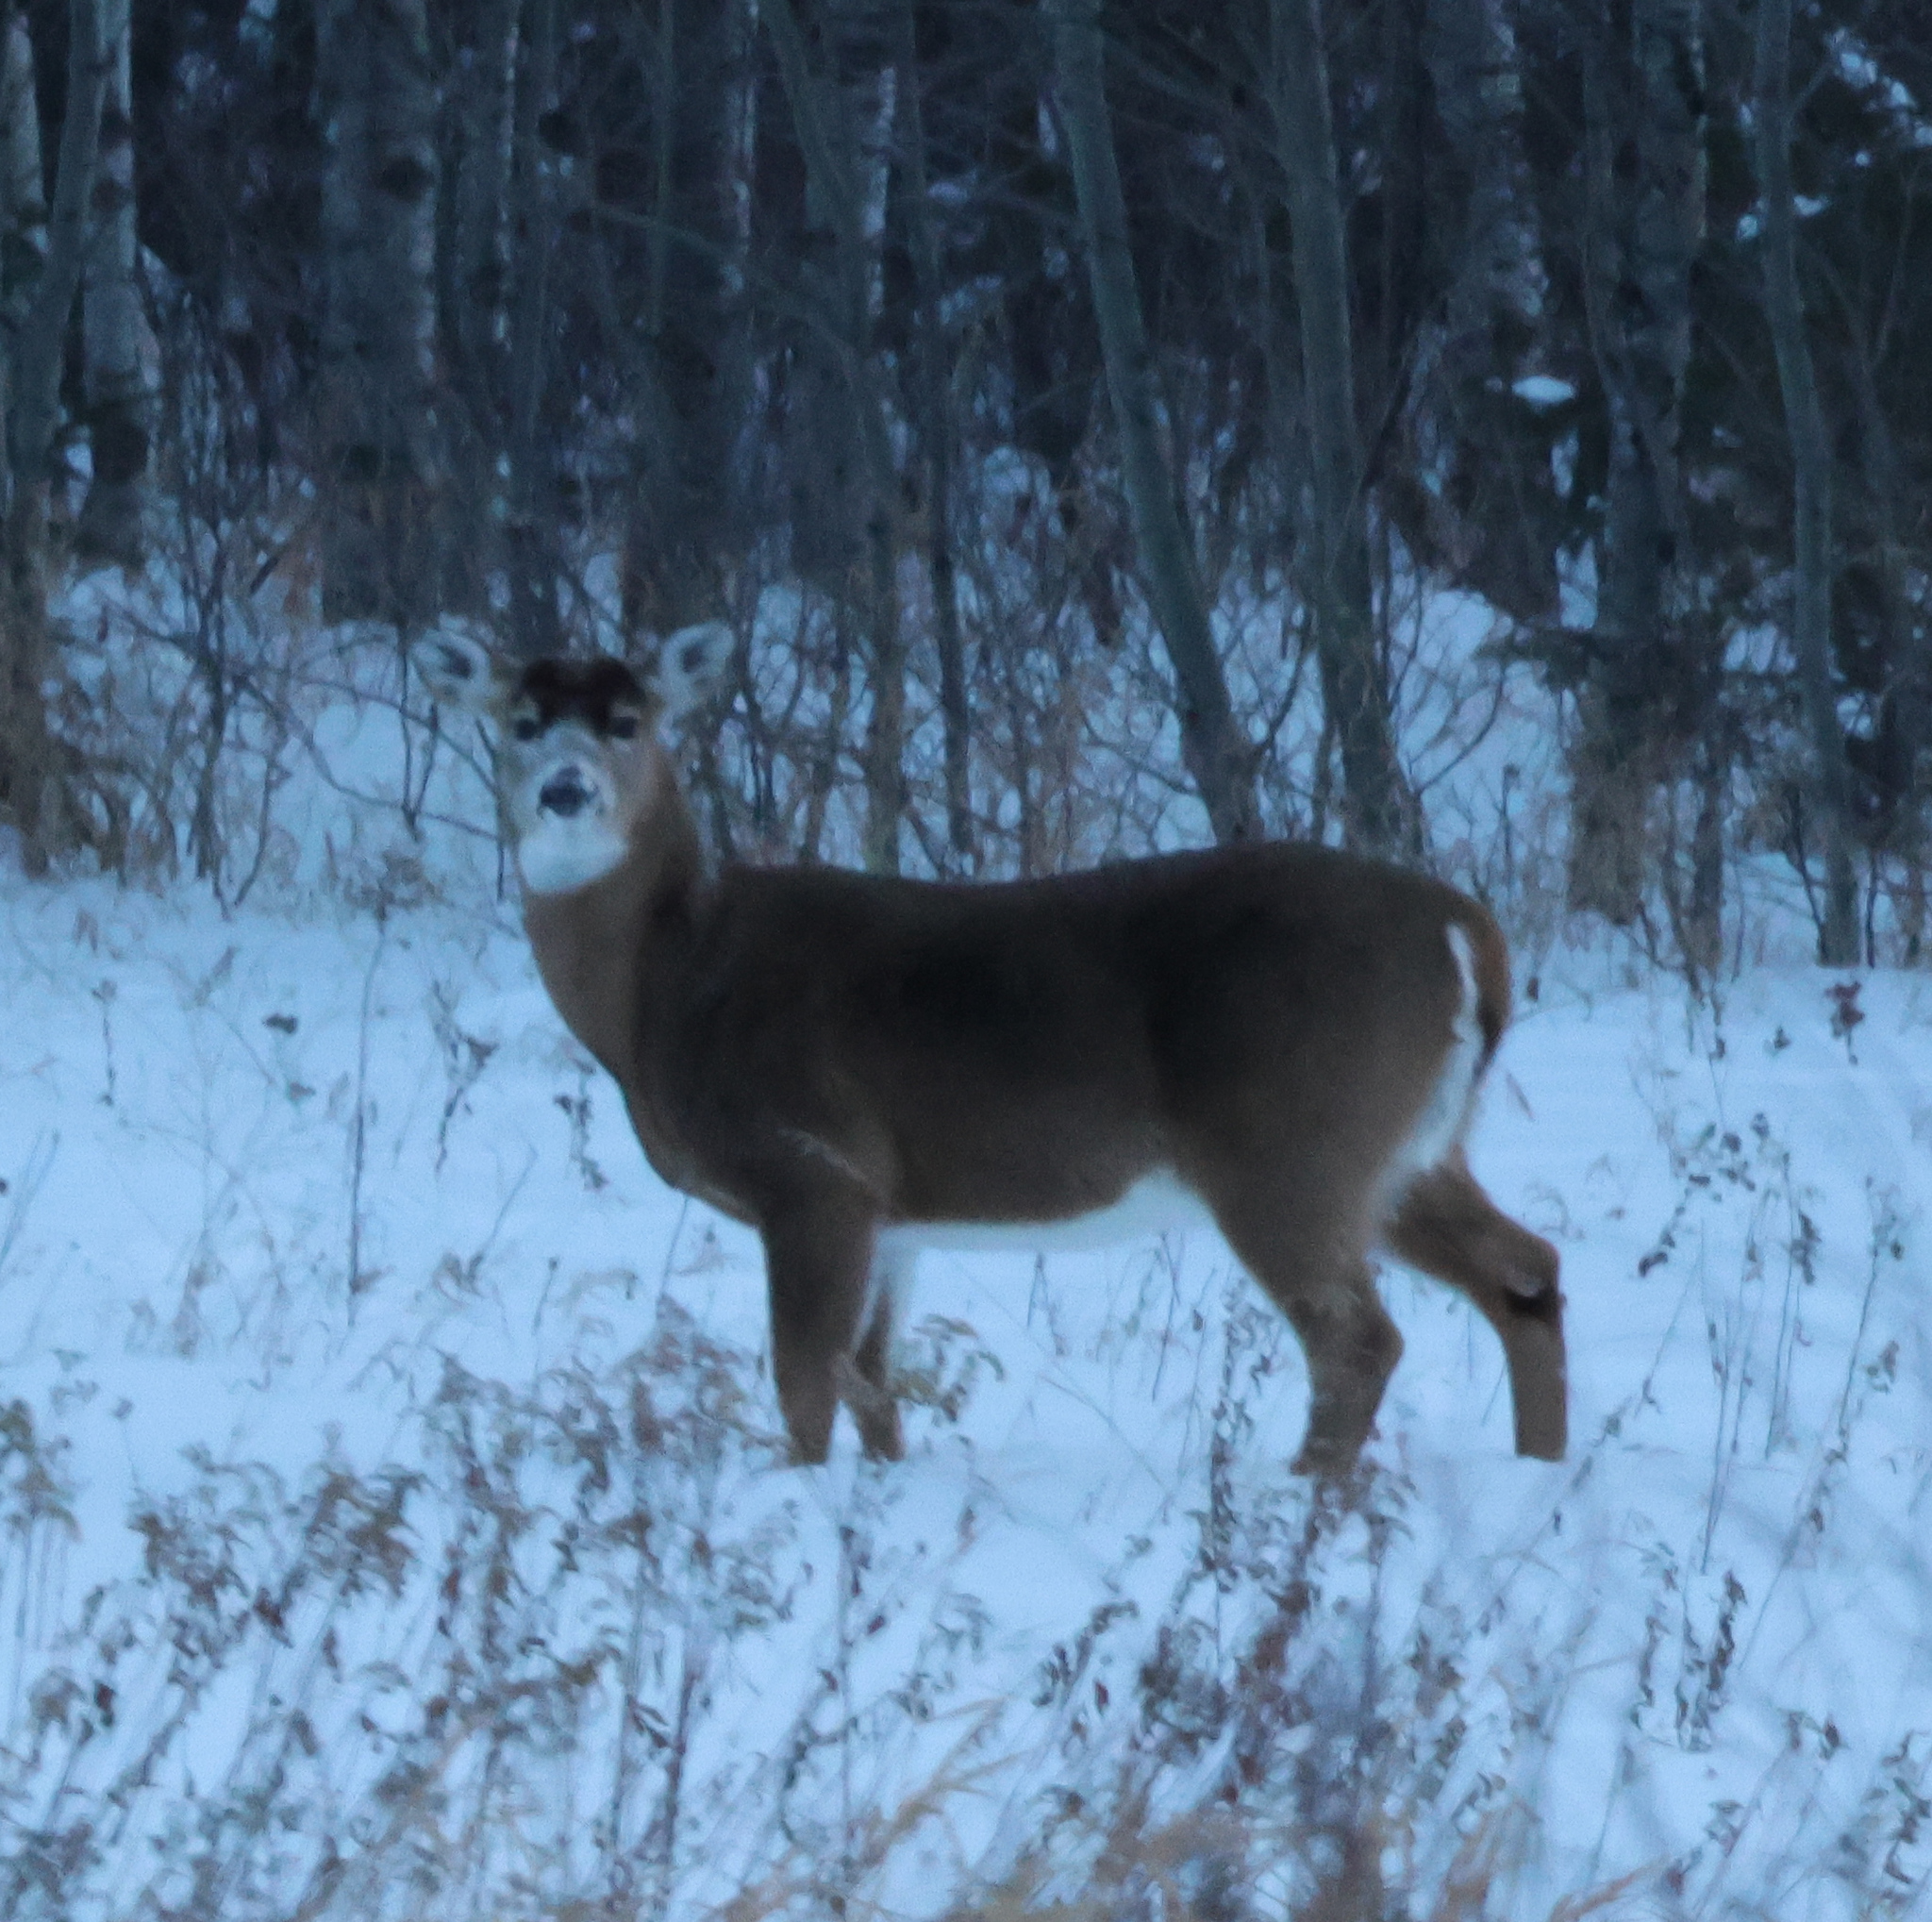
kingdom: Animalia
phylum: Chordata
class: Mammalia
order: Artiodactyla
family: Cervidae
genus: Odocoileus
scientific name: Odocoileus virginianus
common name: White-tailed deer
